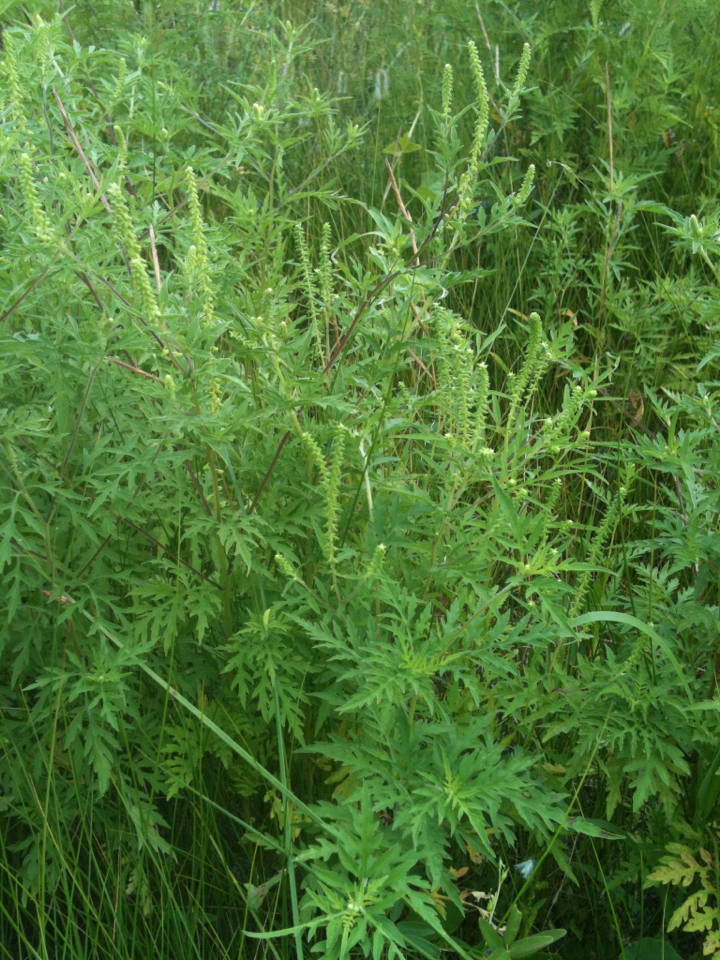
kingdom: Plantae
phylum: Tracheophyta
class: Magnoliopsida
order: Asterales
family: Asteraceae
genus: Ambrosia
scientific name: Ambrosia artemisiifolia
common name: Annual ragweed
